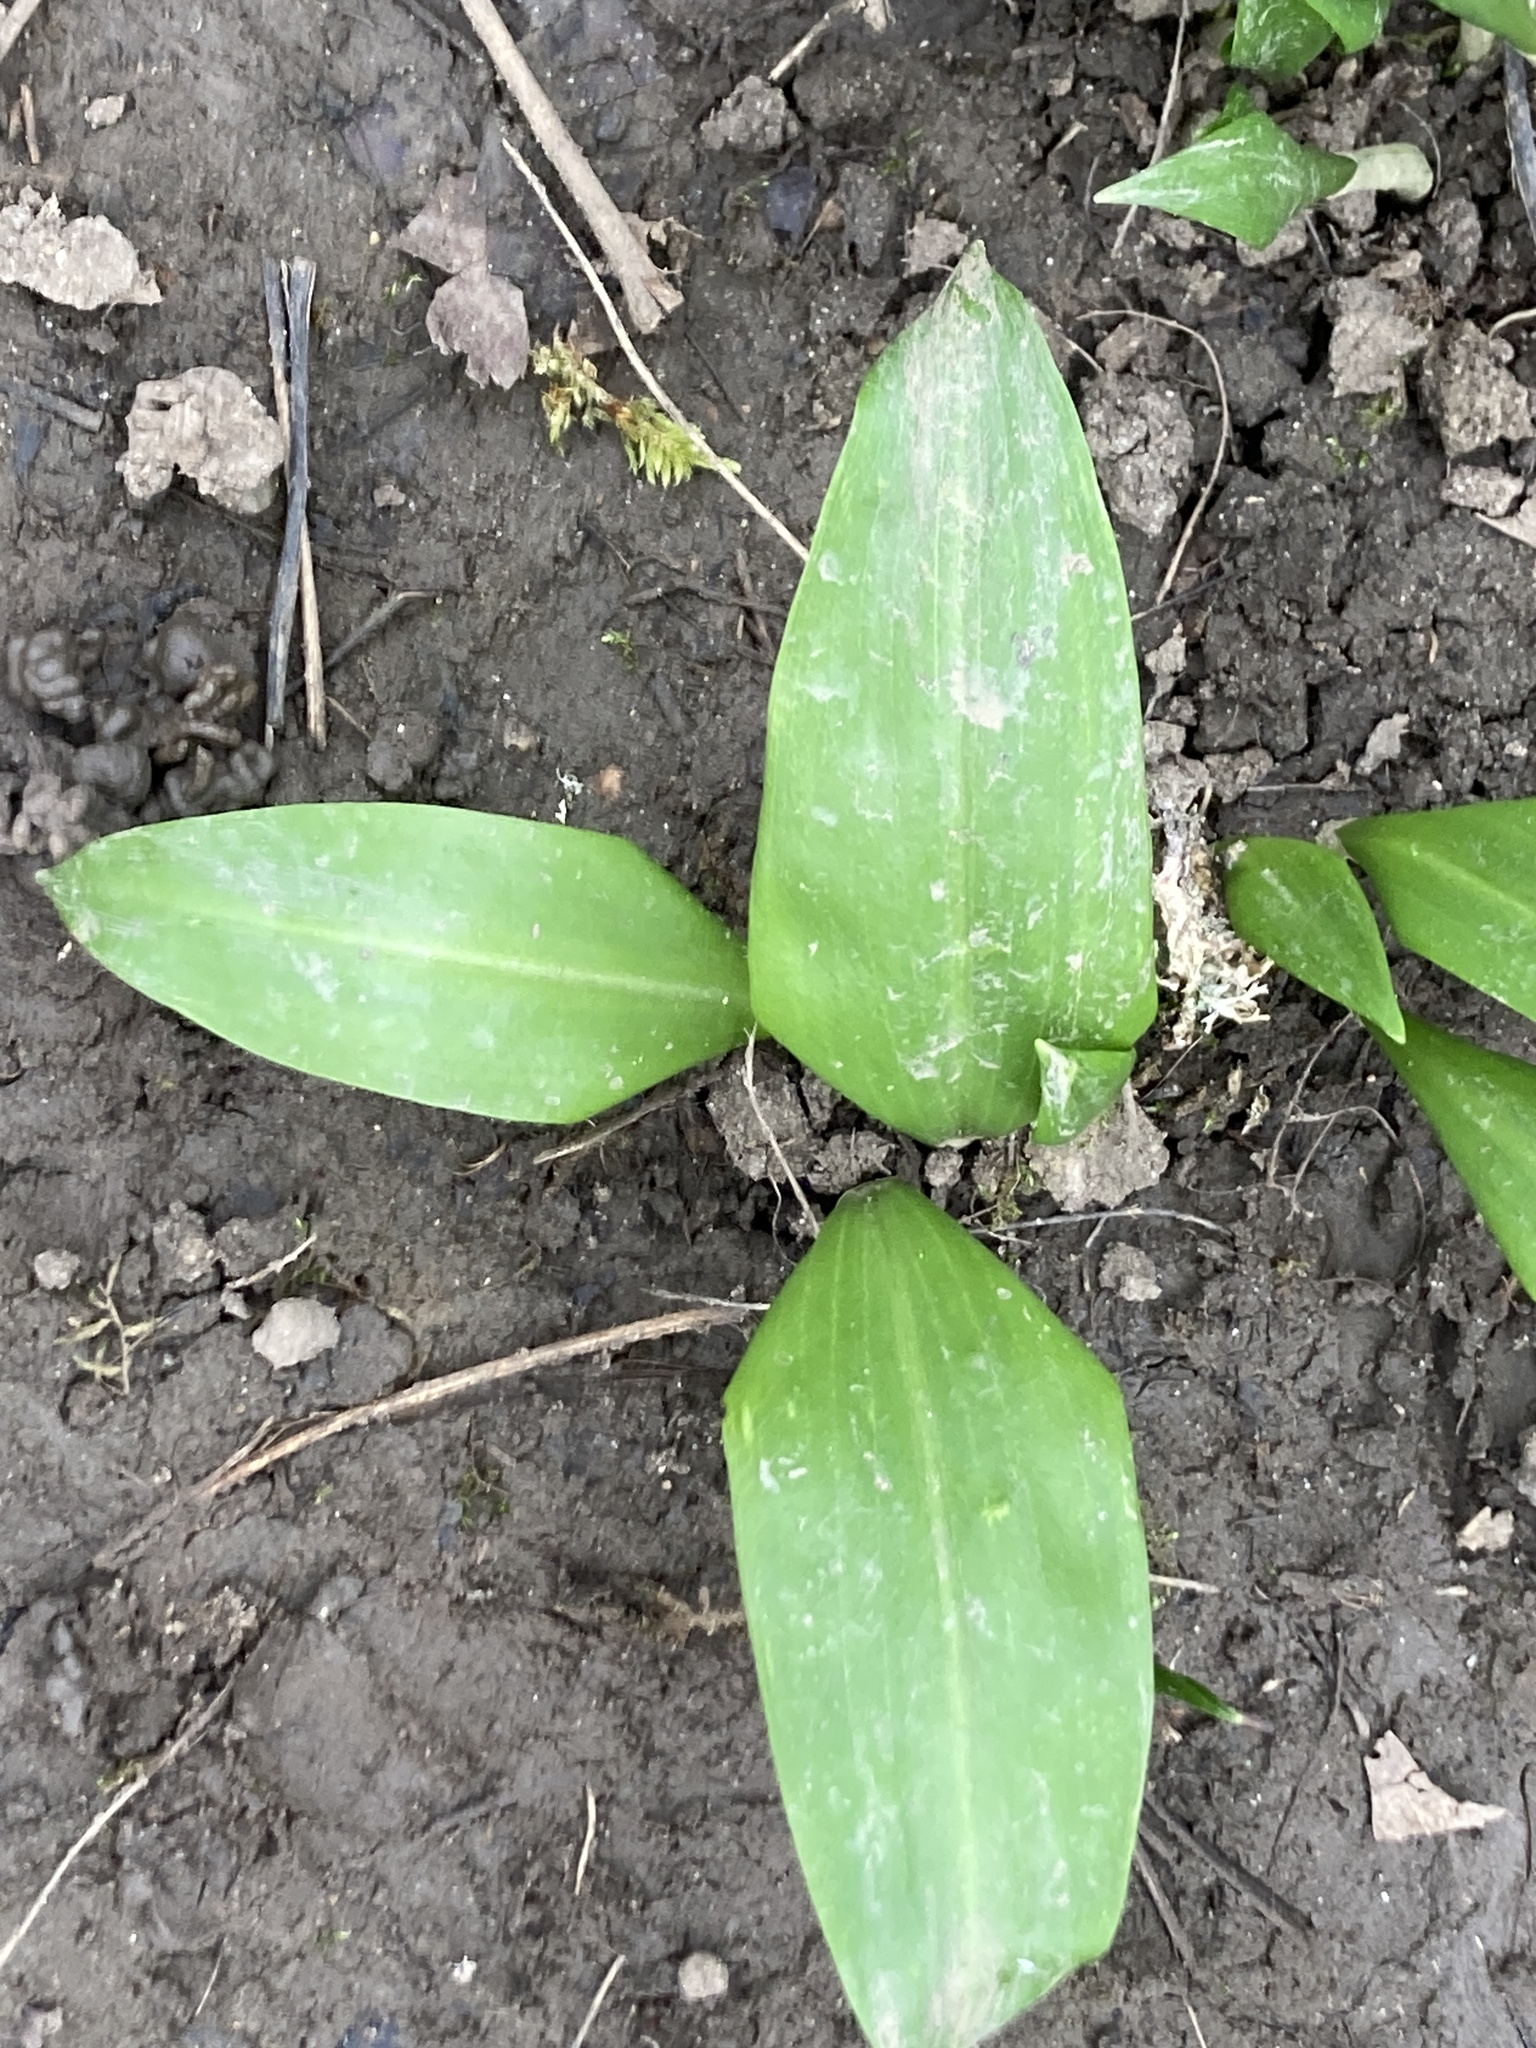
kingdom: Plantae
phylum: Tracheophyta
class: Liliopsida
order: Asparagales
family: Amaryllidaceae
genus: Allium
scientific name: Allium ursinum
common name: Ramsons
